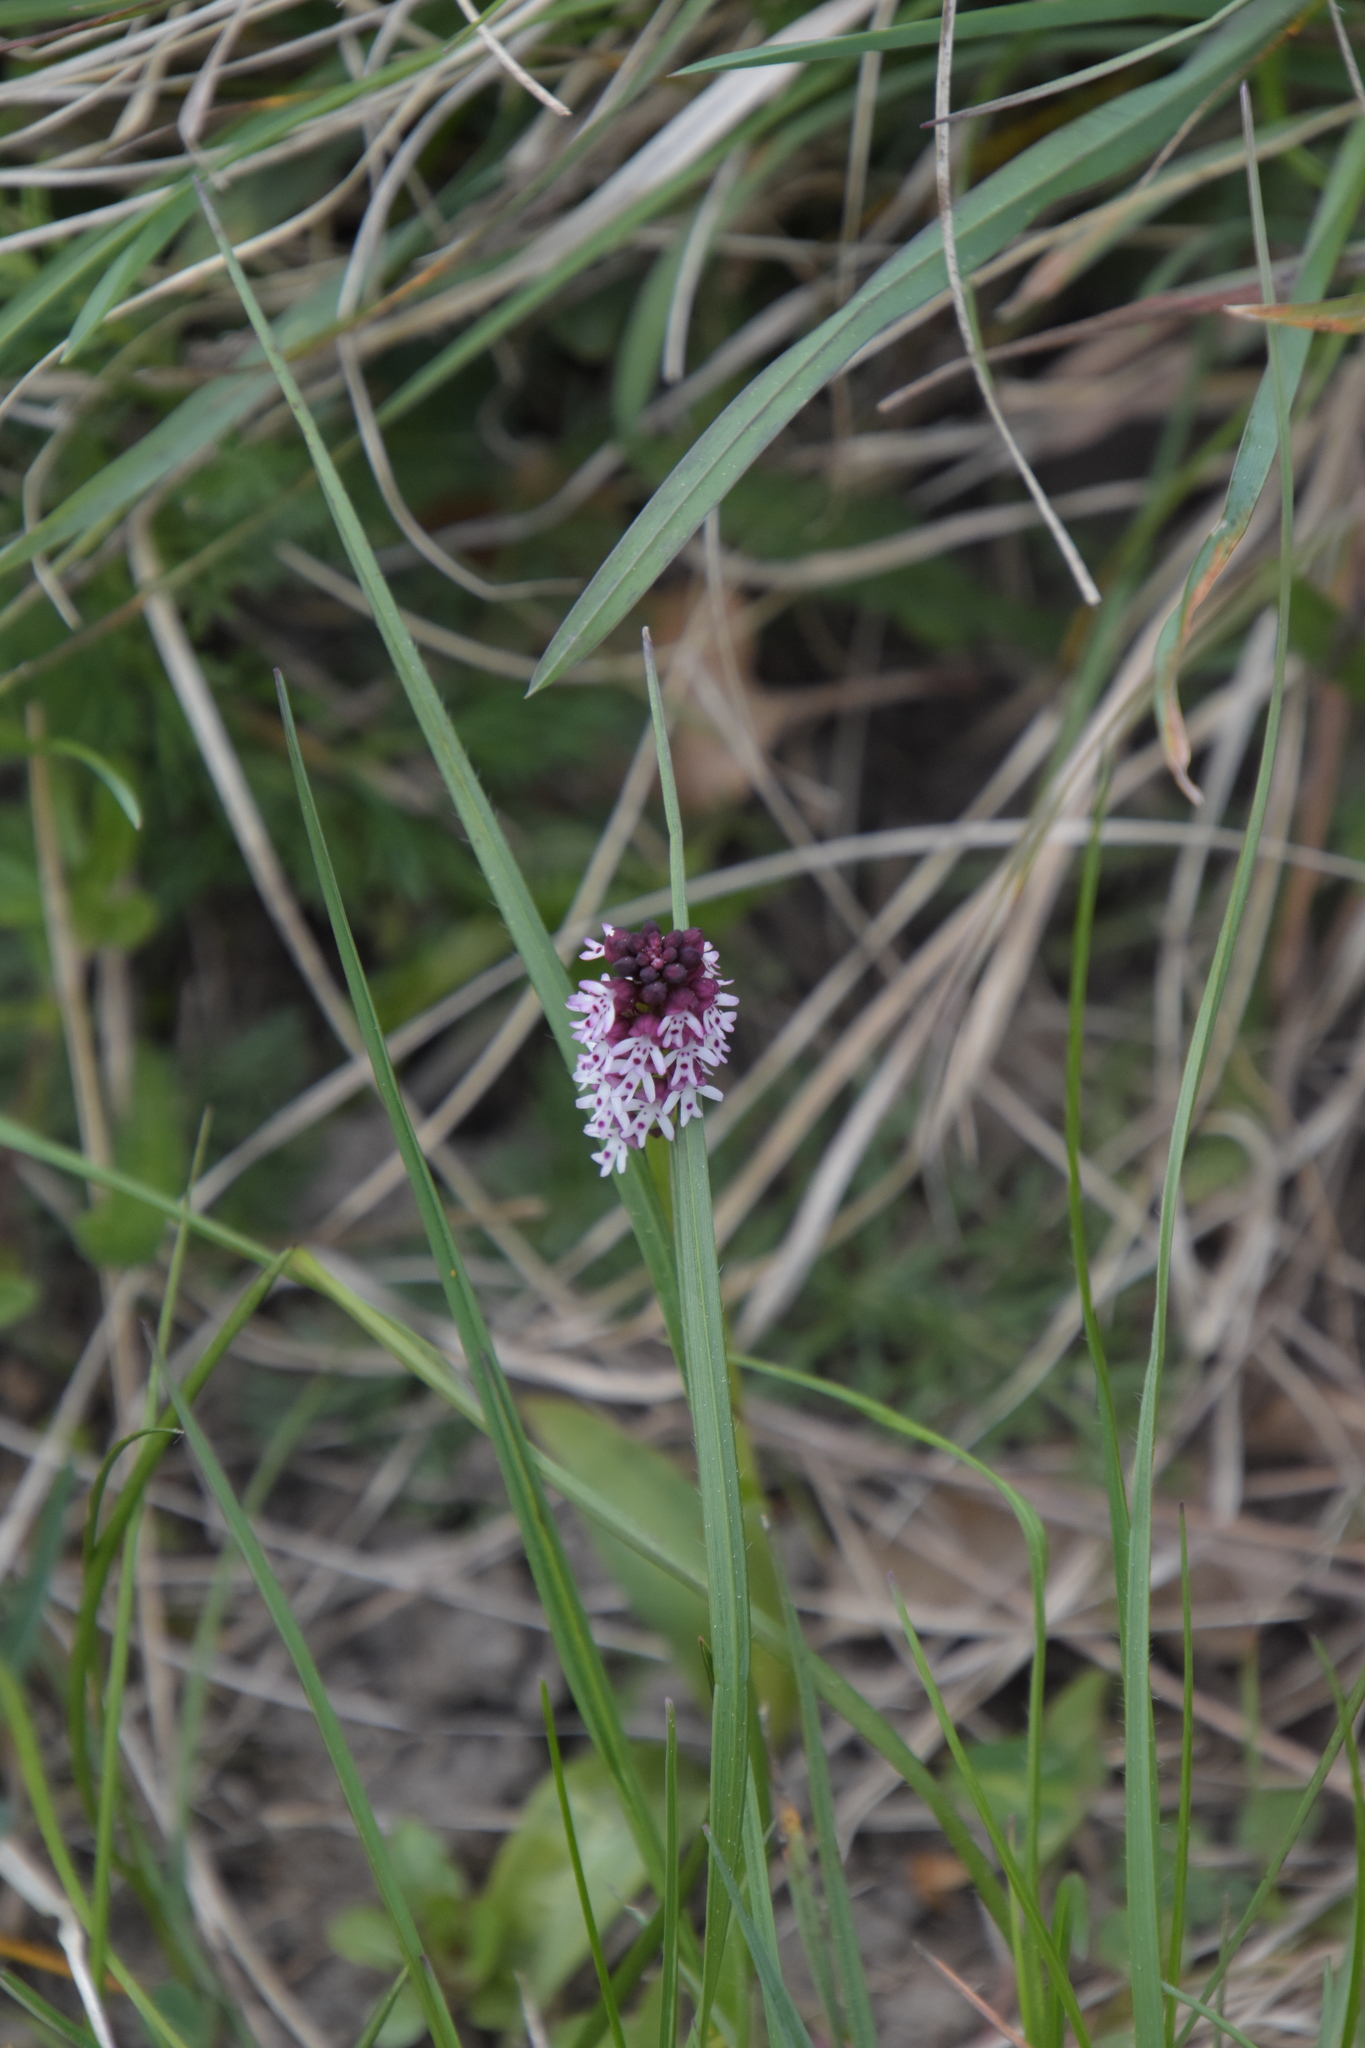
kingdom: Plantae
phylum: Tracheophyta
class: Liliopsida
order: Asparagales
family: Orchidaceae
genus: Neotinea
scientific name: Neotinea ustulata
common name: Burnt orchid
